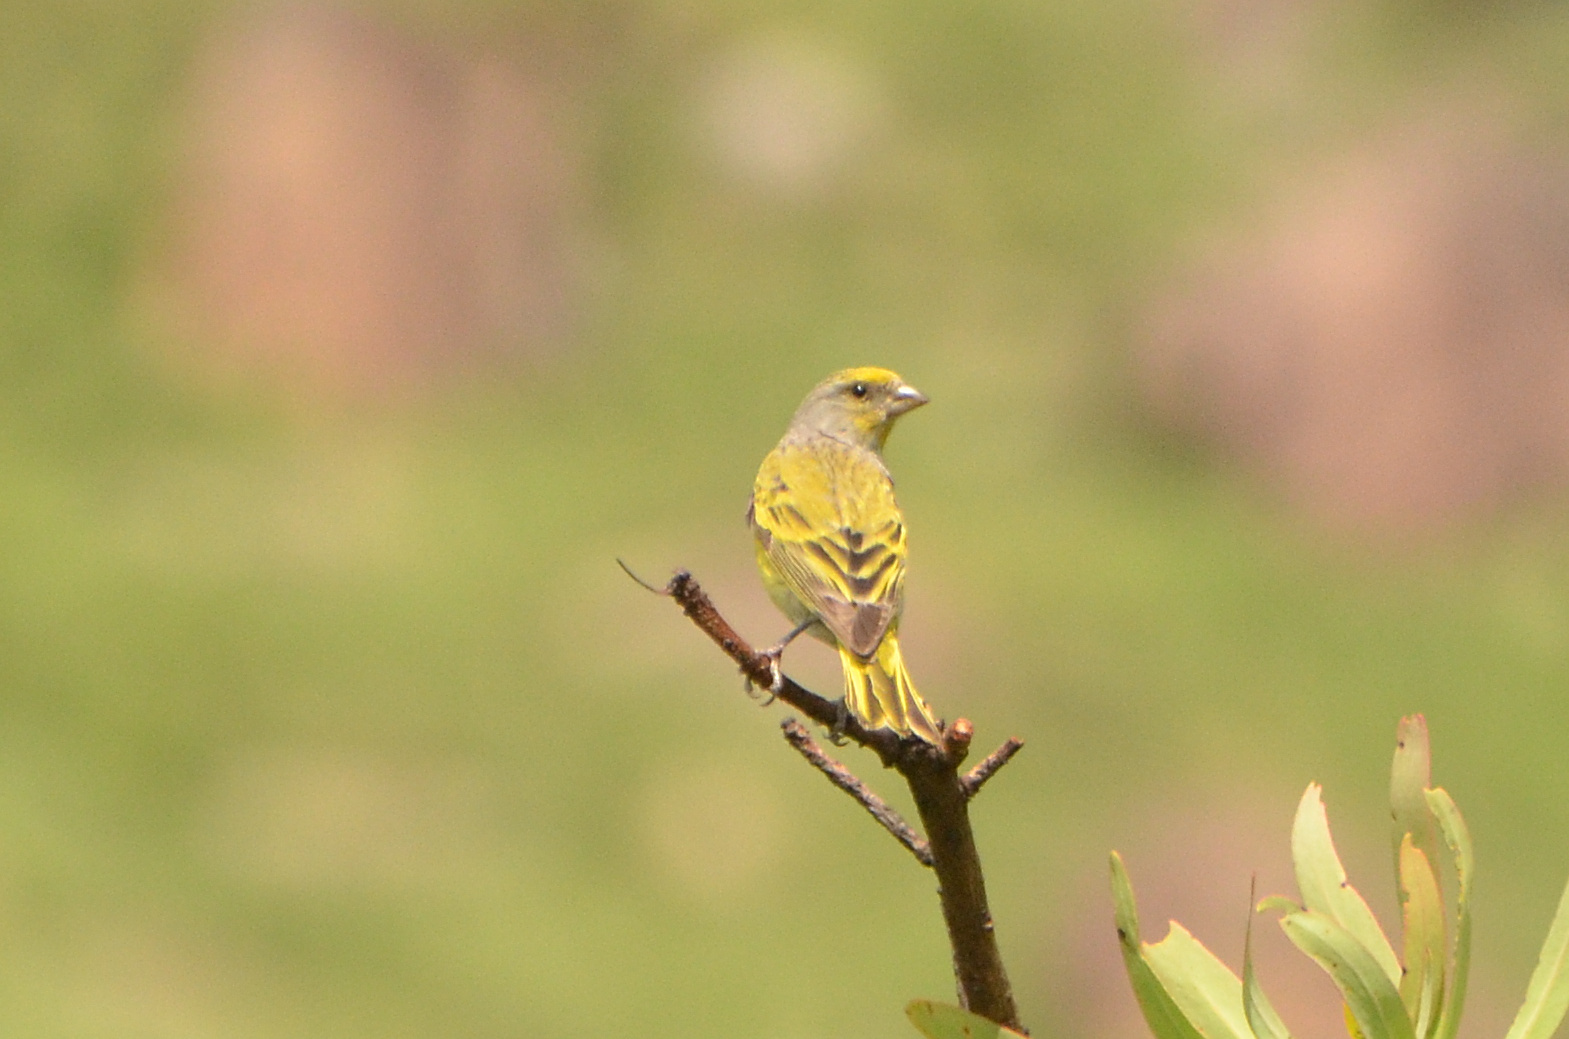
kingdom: Animalia
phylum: Chordata
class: Aves
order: Passeriformes
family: Fringillidae
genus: Serinus
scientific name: Serinus canicollis
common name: Cape canary
